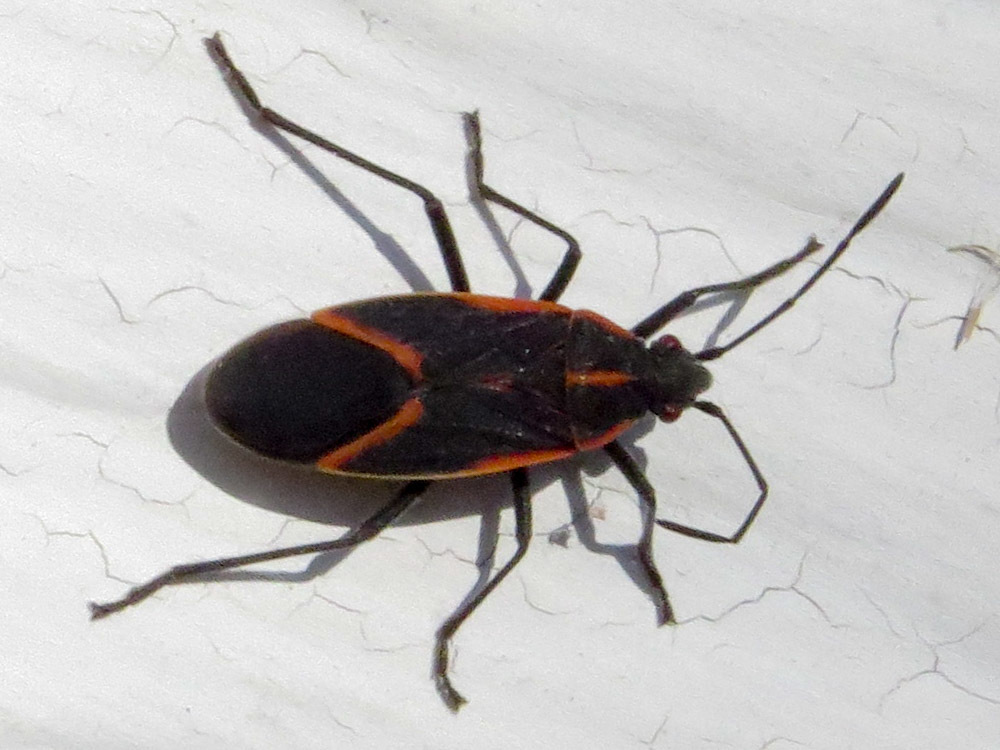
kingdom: Animalia
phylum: Arthropoda
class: Insecta
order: Hemiptera
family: Rhopalidae
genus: Boisea
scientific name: Boisea trivittata
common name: Boxelder bug
